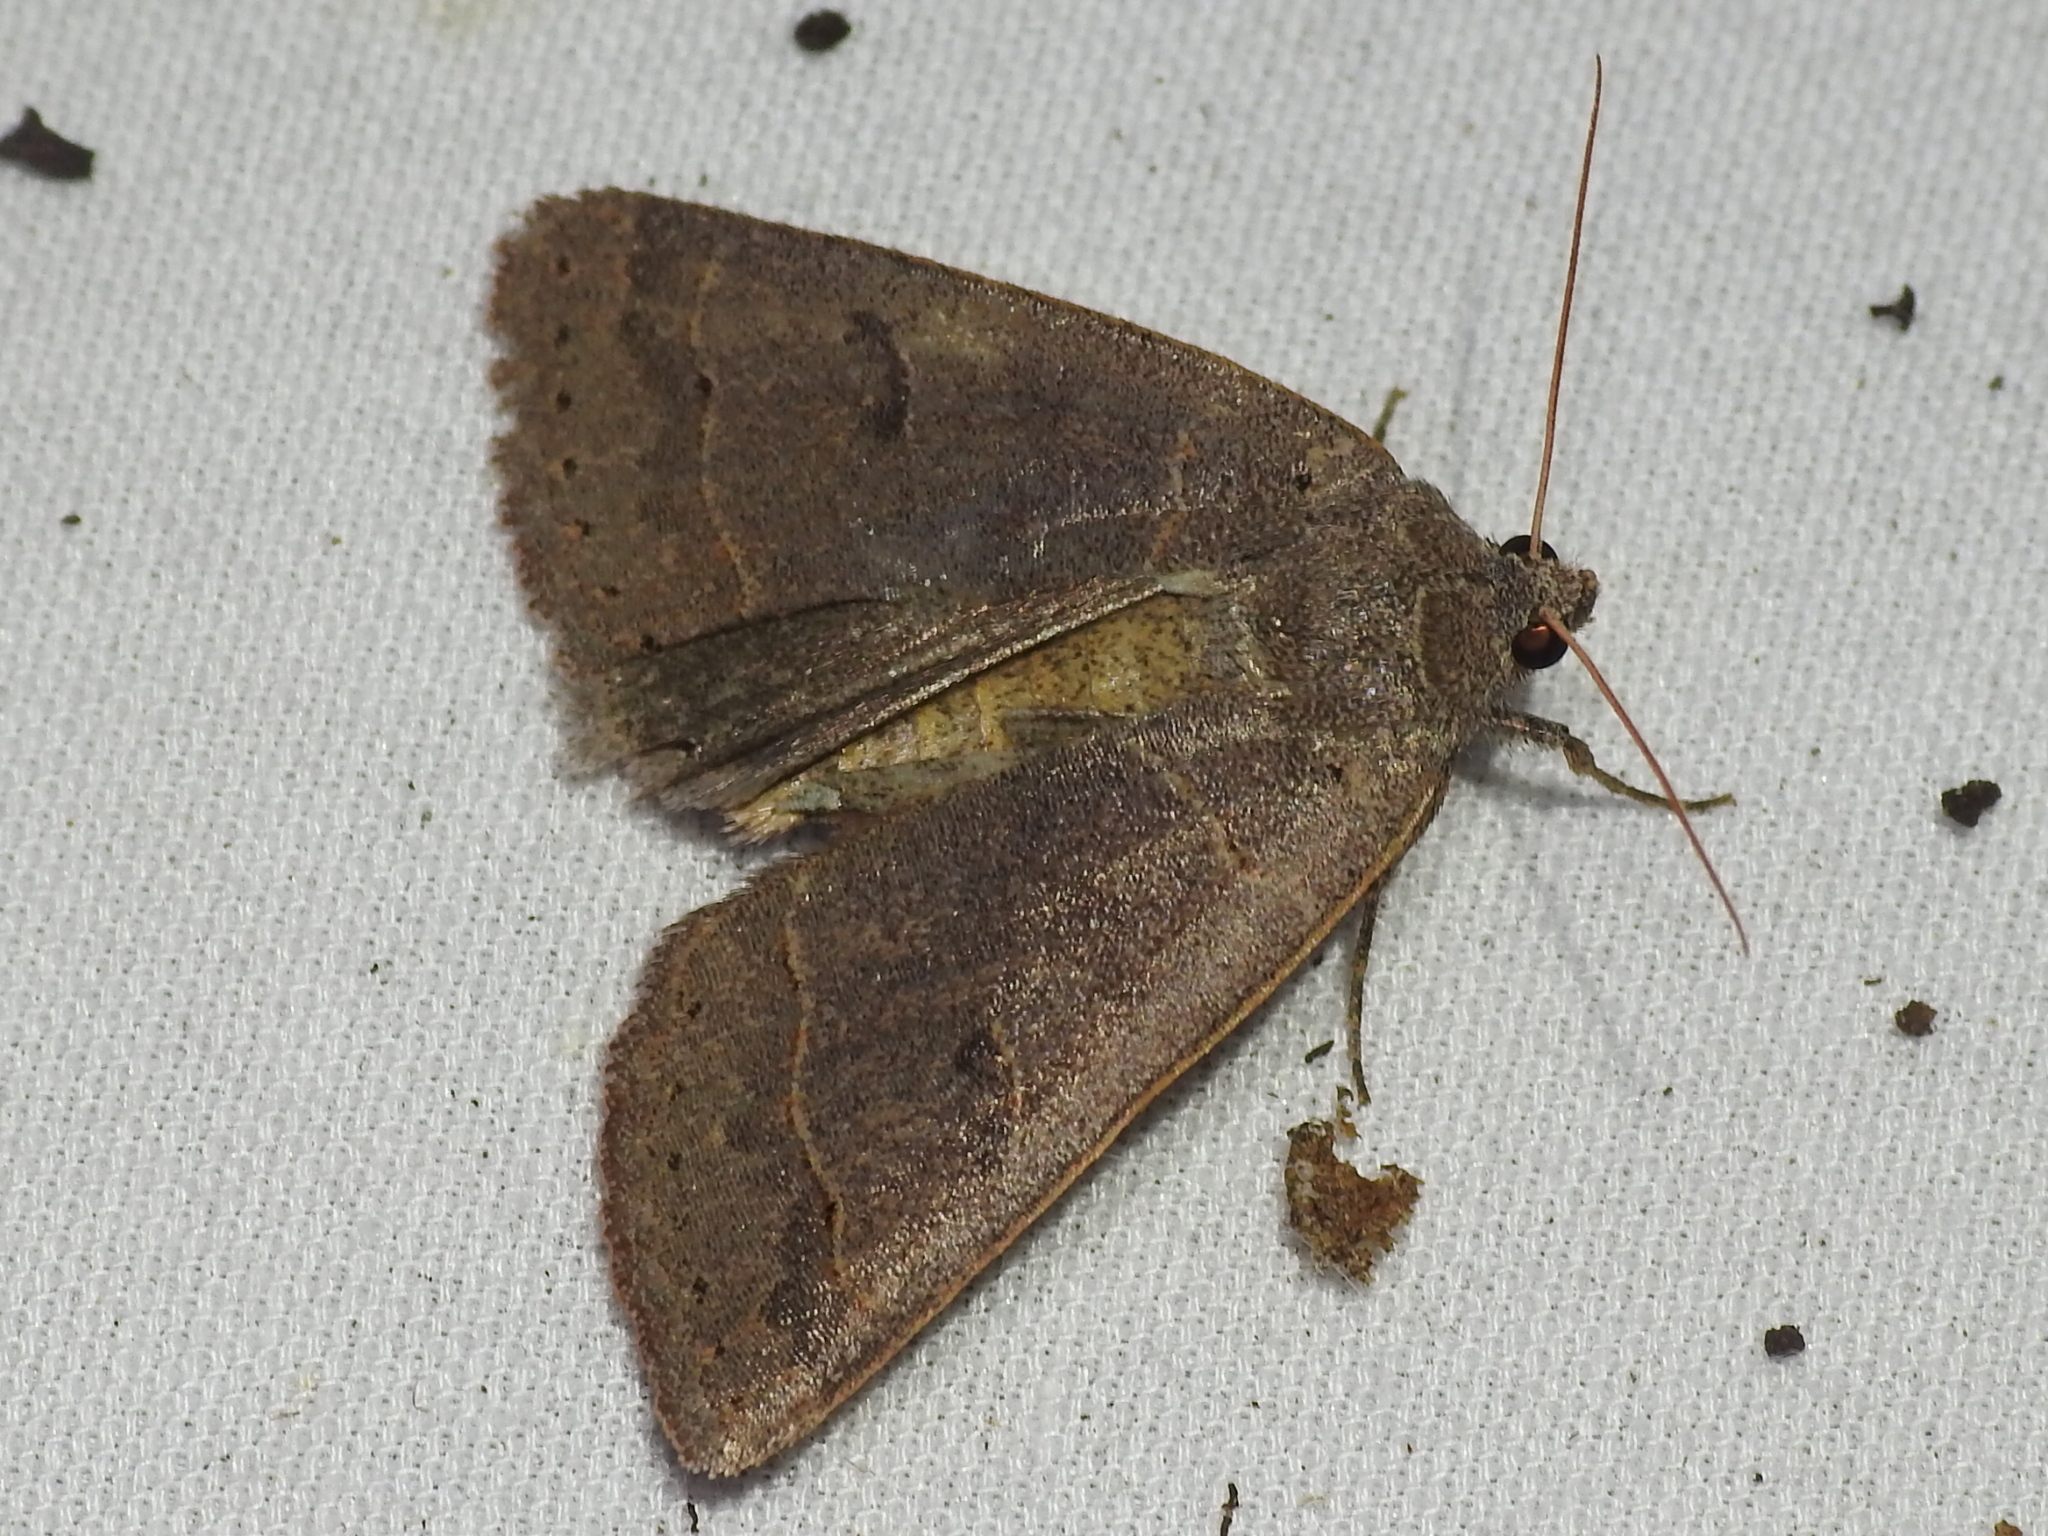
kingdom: Animalia
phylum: Arthropoda
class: Insecta
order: Lepidoptera
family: Erebidae
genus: Phoberia
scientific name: Phoberia atomaris
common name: Common oak moth
